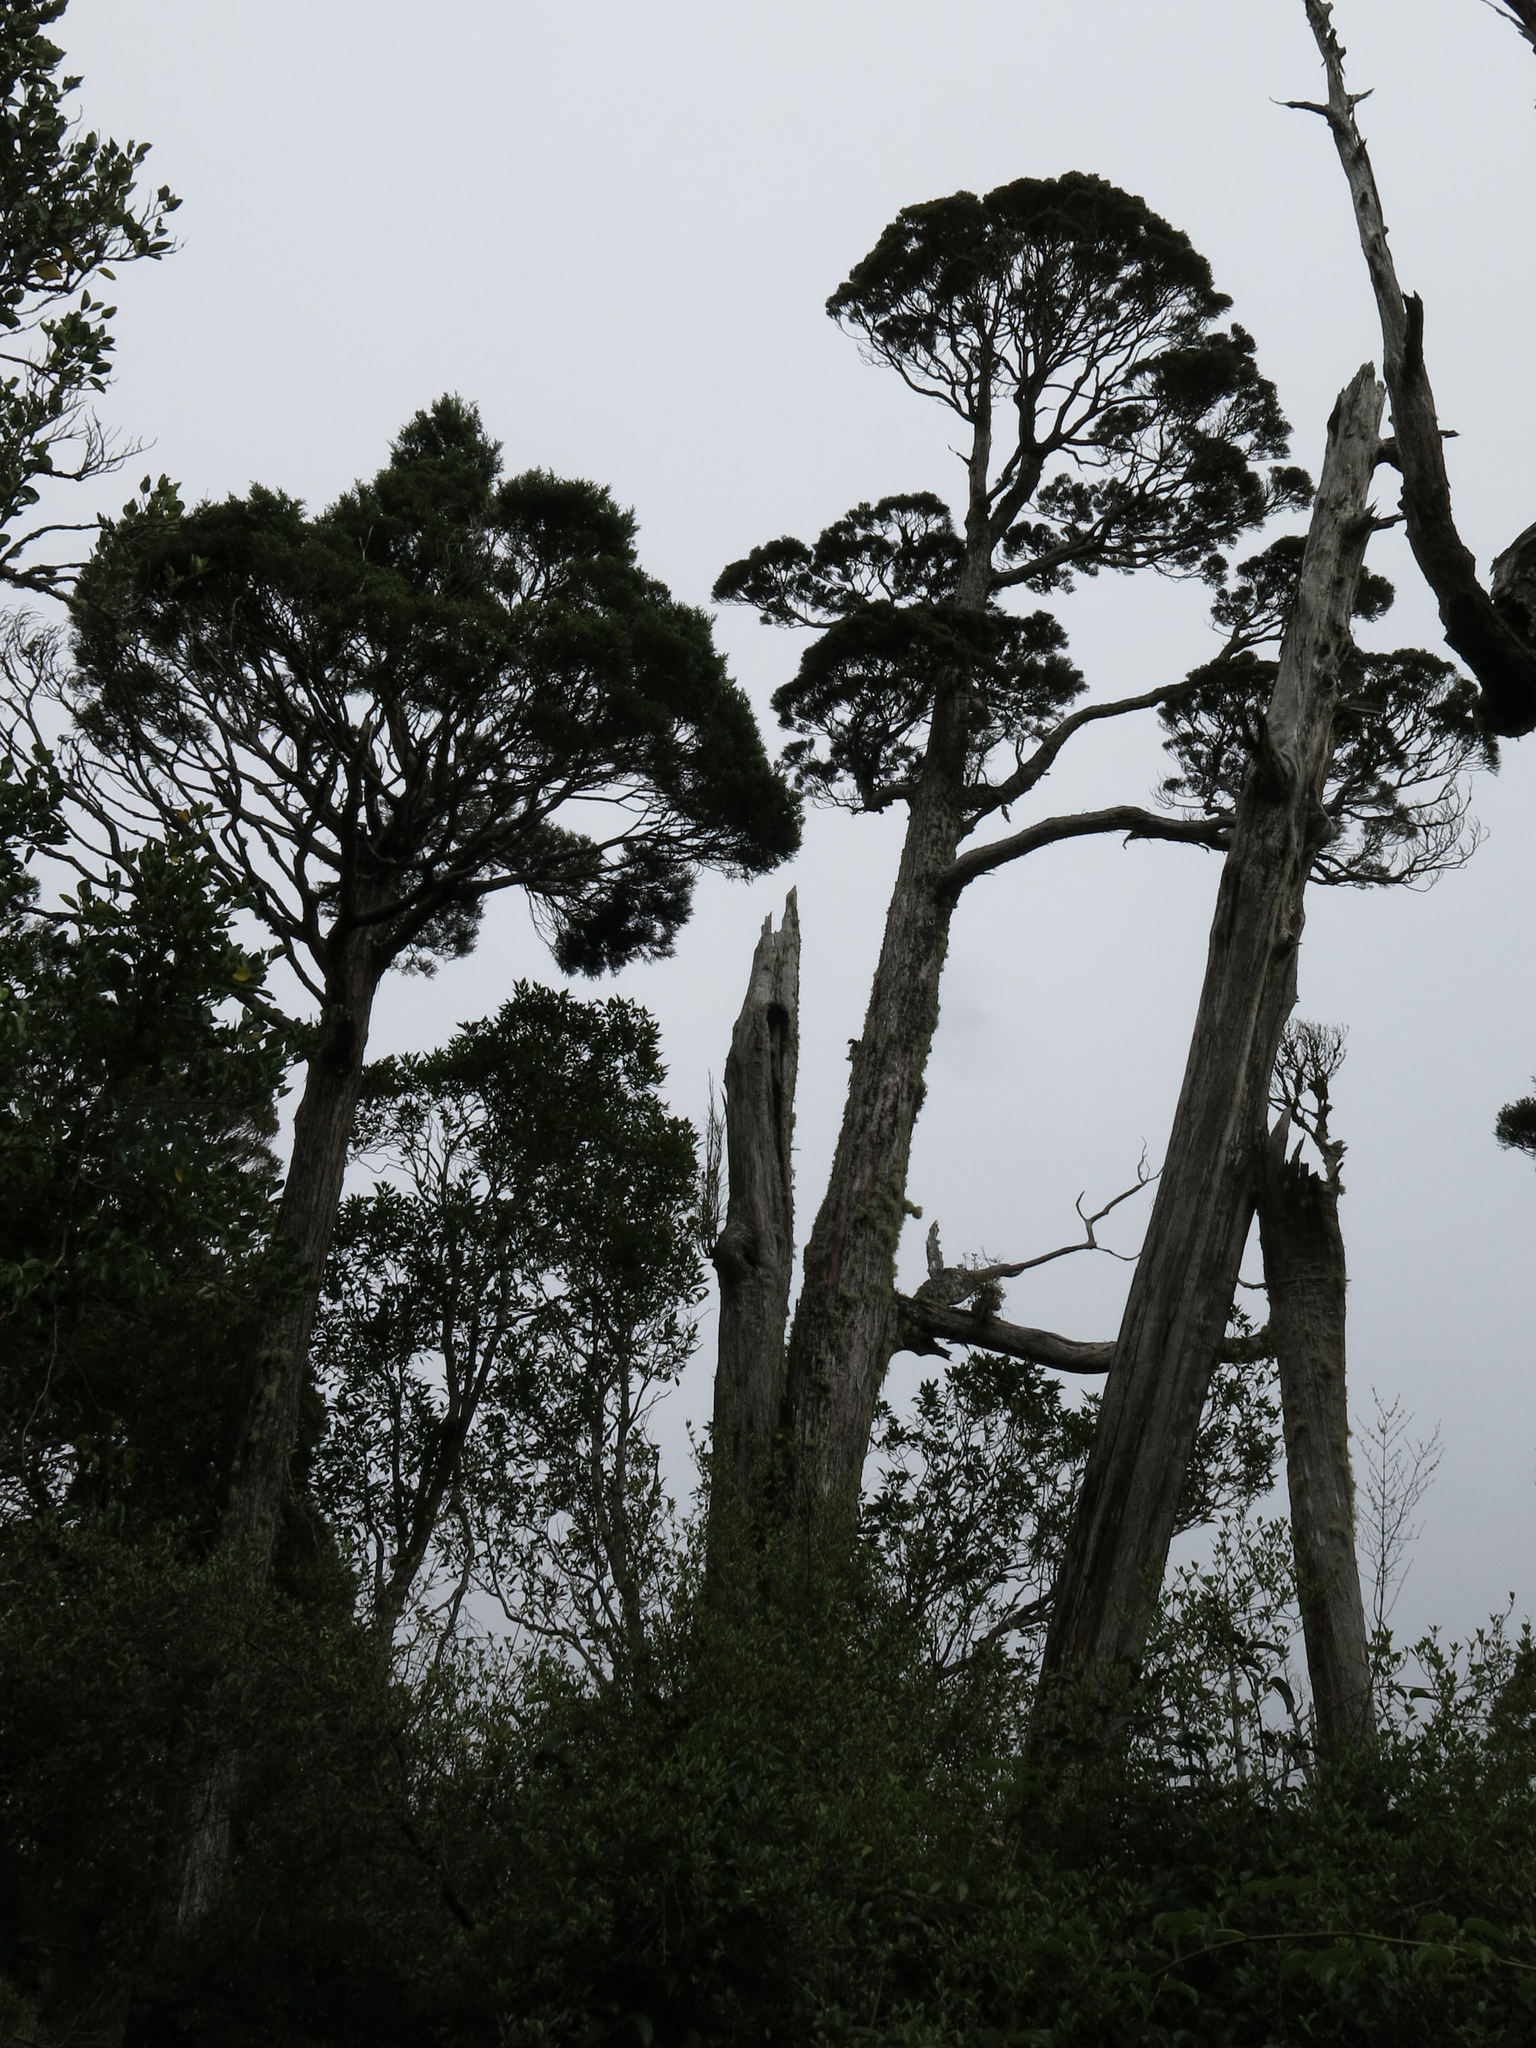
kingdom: Plantae
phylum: Tracheophyta
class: Pinopsida
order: Pinales
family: Cupressaceae
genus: Libocedrus
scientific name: Libocedrus bidwillii
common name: Cedar
